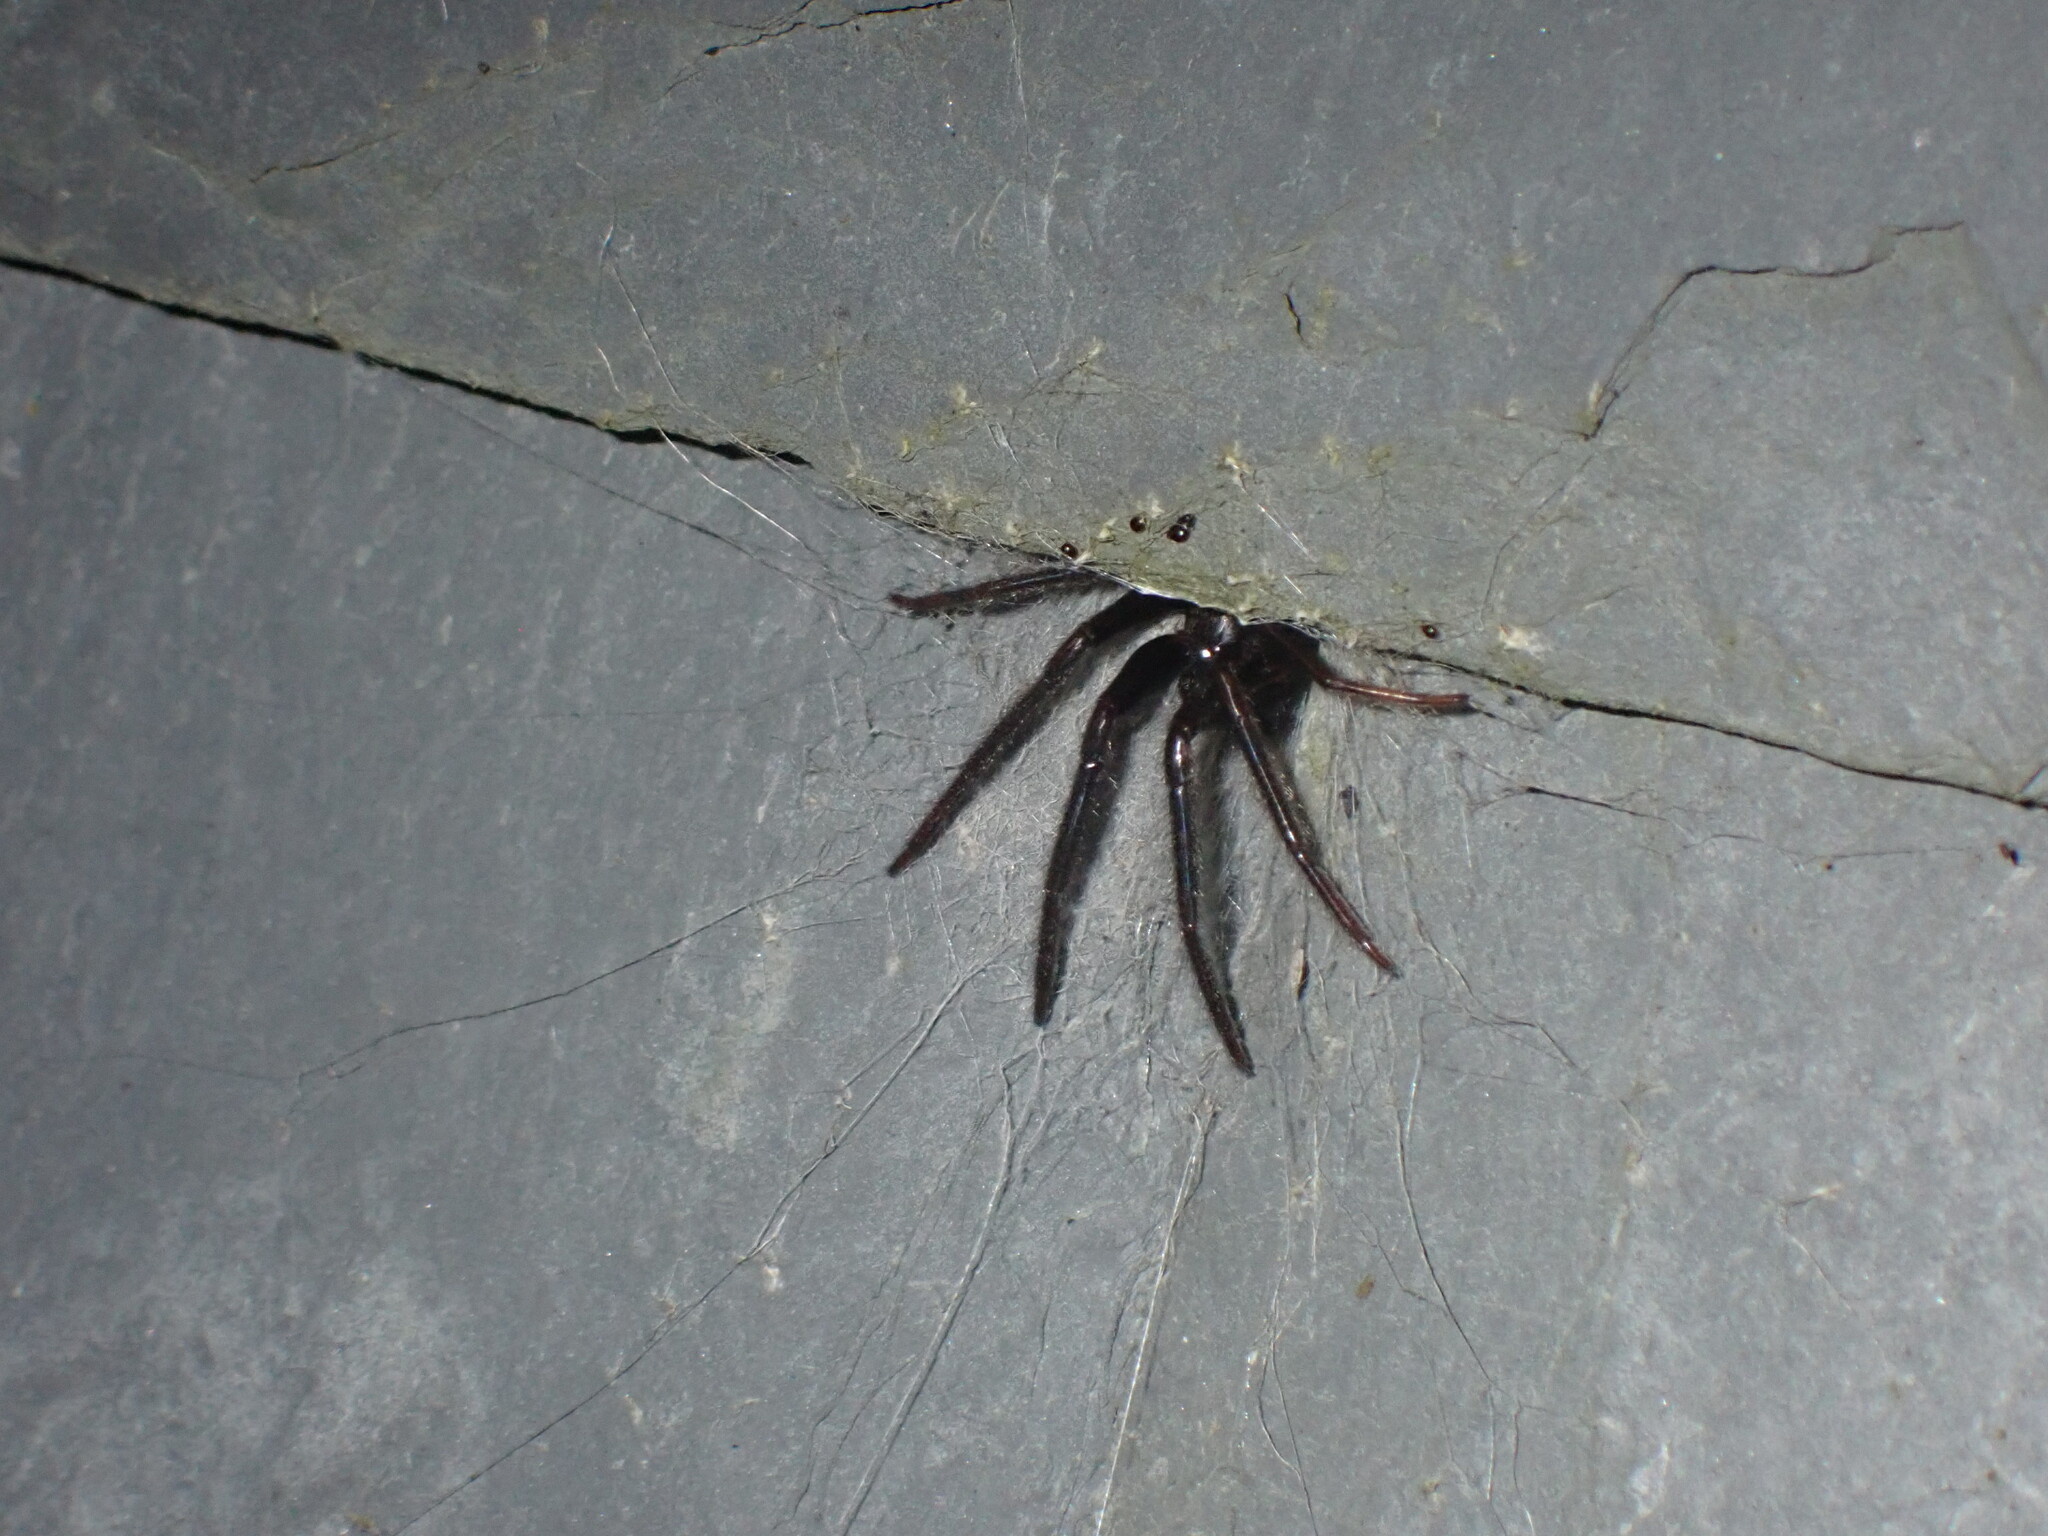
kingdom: Animalia
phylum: Arthropoda
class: Arachnida
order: Araneae
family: Segestriidae
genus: Segestria
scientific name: Segestria florentina
